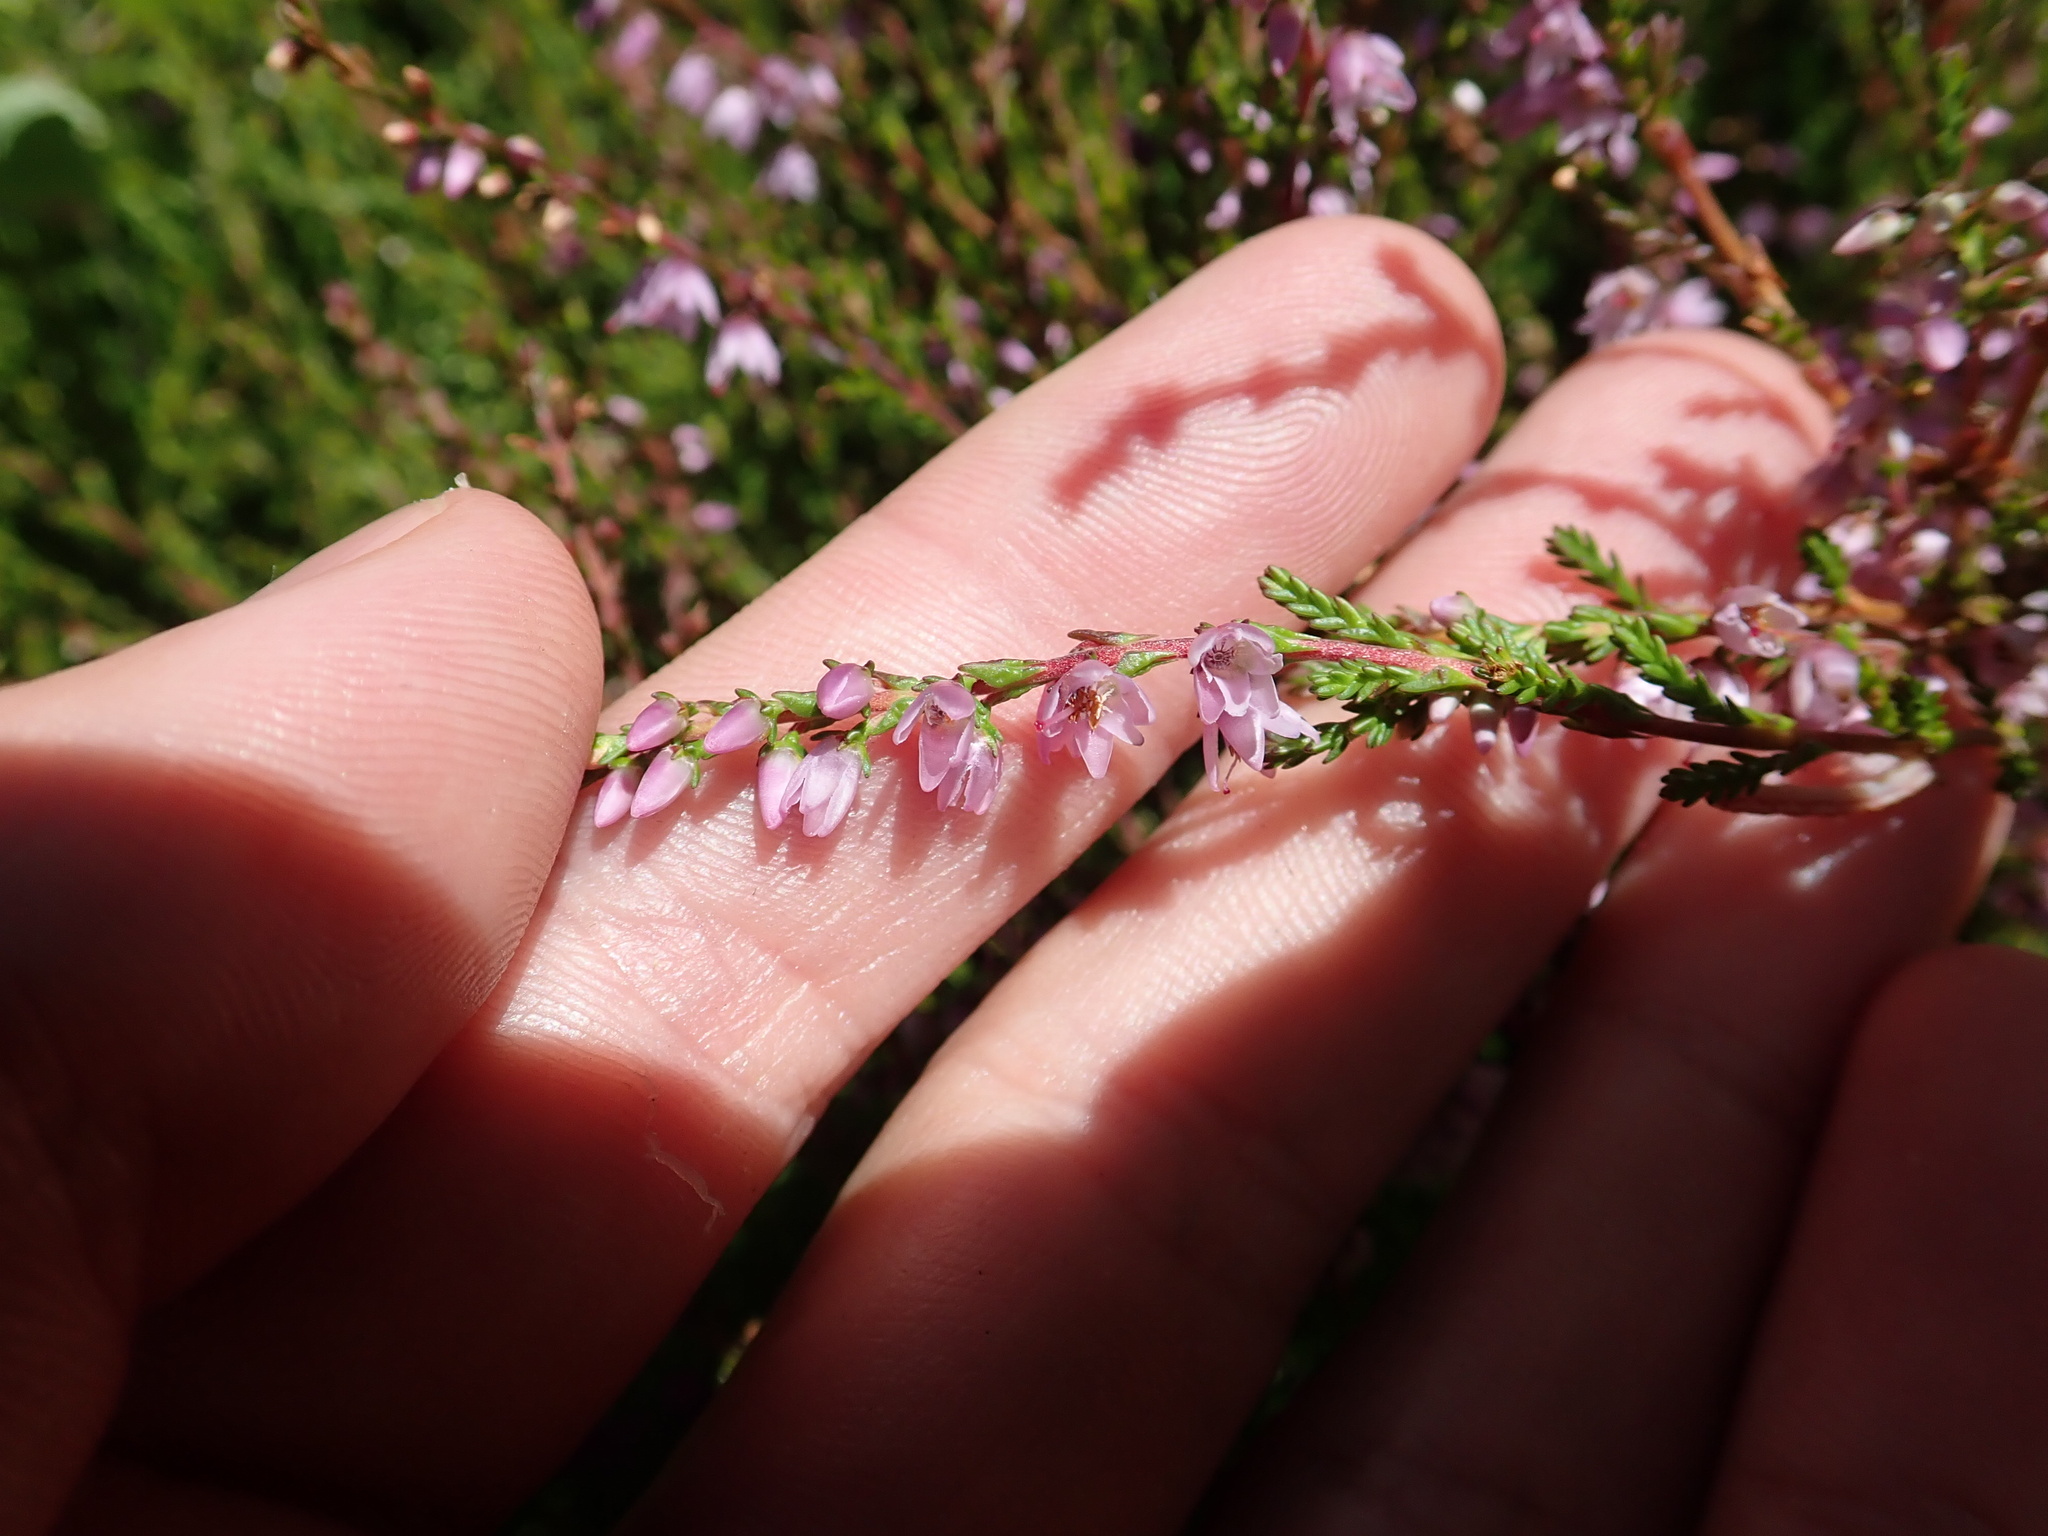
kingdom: Plantae
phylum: Tracheophyta
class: Magnoliopsida
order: Ericales
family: Ericaceae
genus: Calluna
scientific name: Calluna vulgaris
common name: Heather
